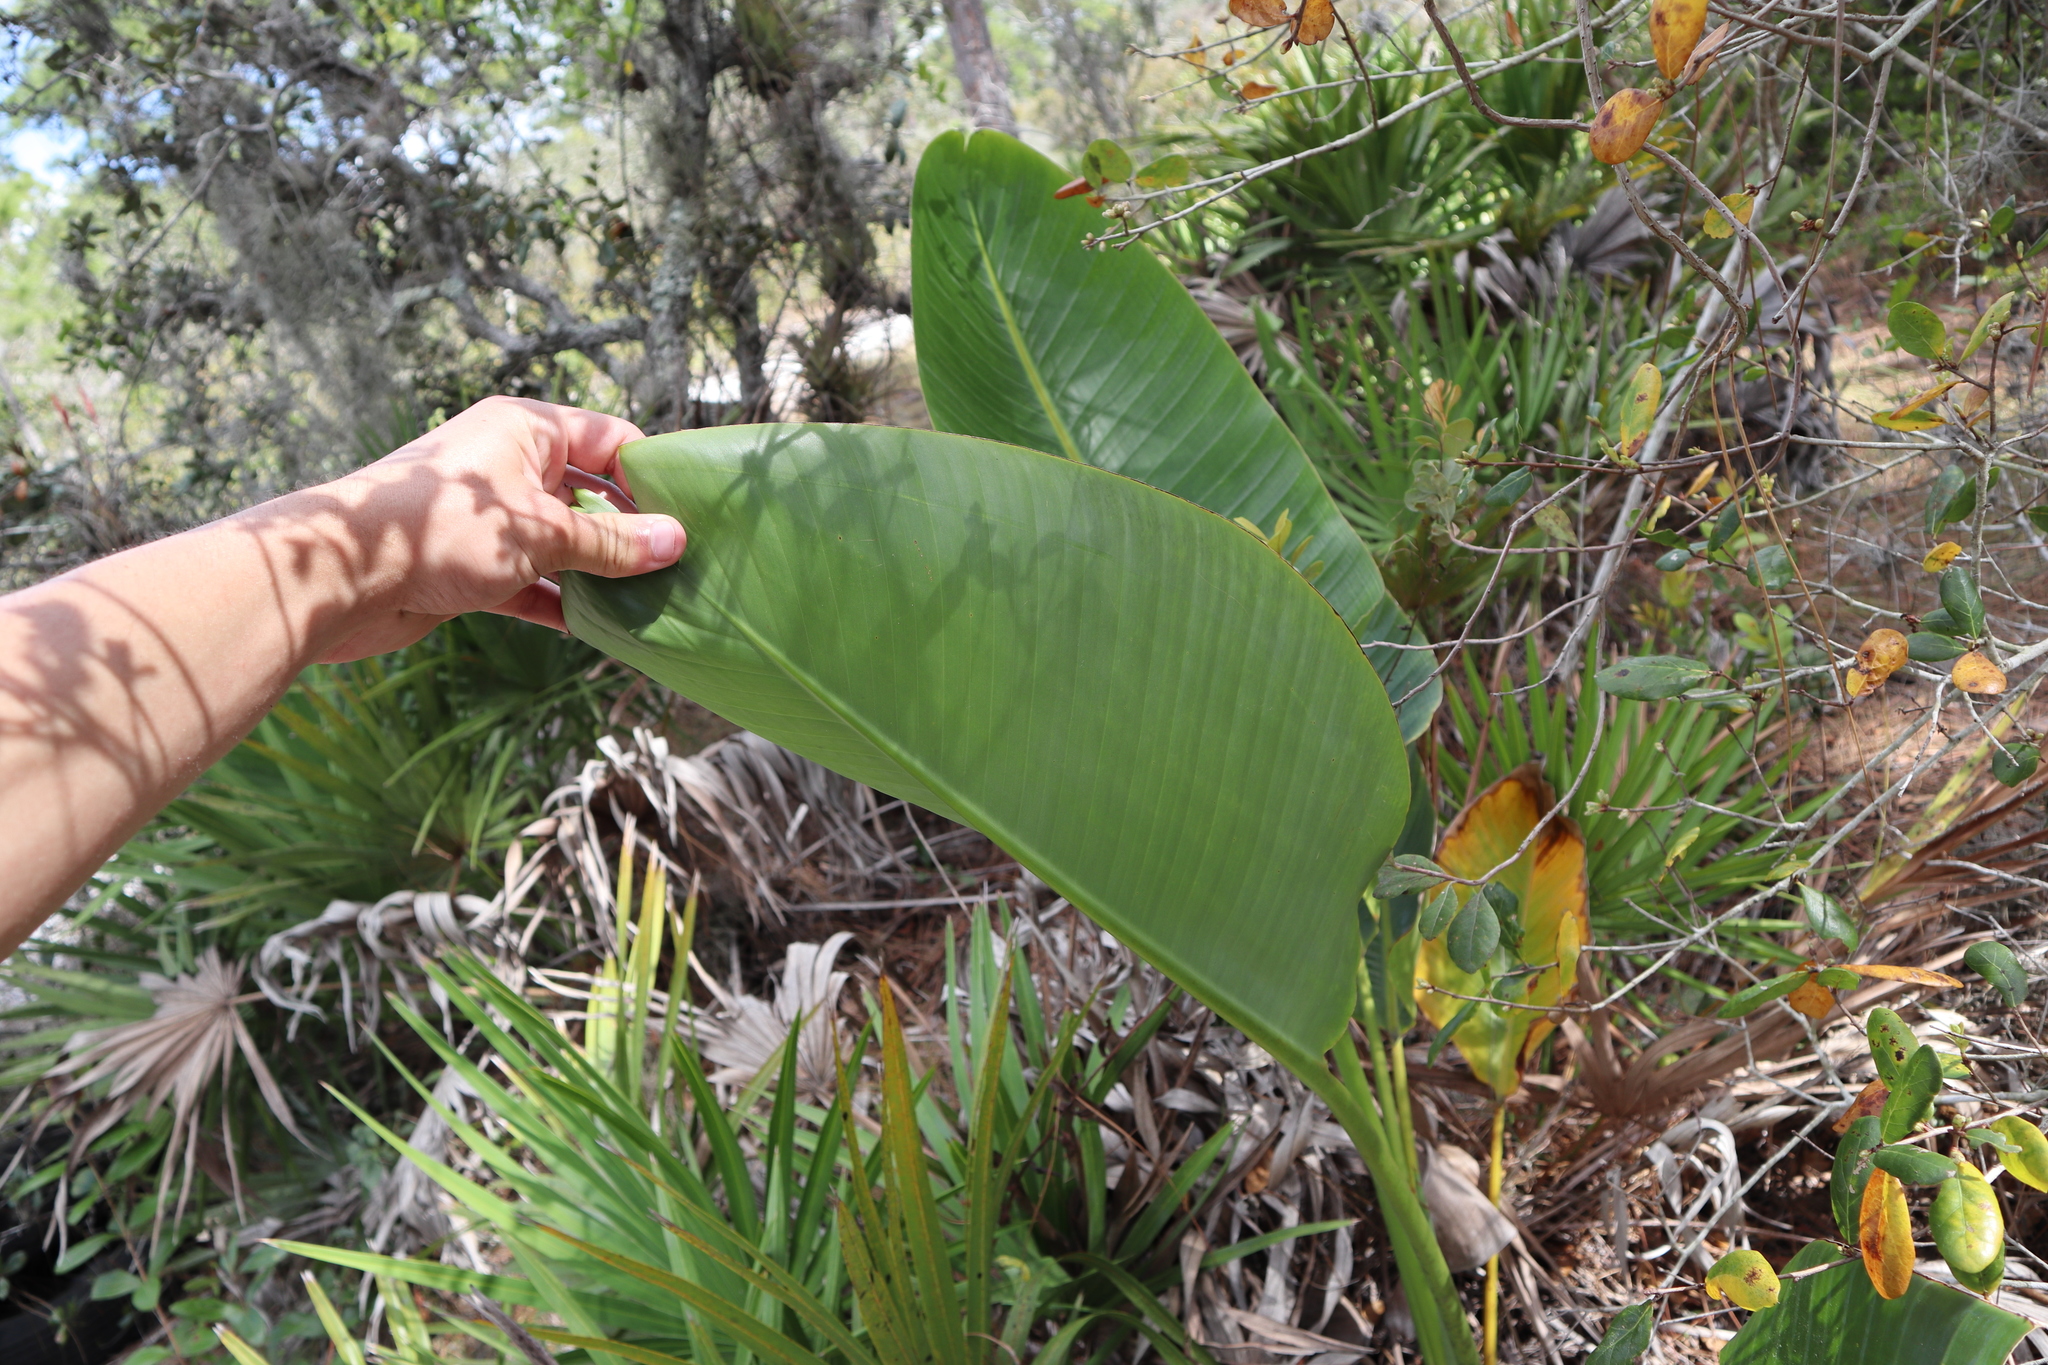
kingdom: Plantae
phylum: Tracheophyta
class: Liliopsida
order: Zingiberales
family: Strelitziaceae
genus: Strelitzia
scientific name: Strelitzia nicolai
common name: Bird-of-paradise tree
